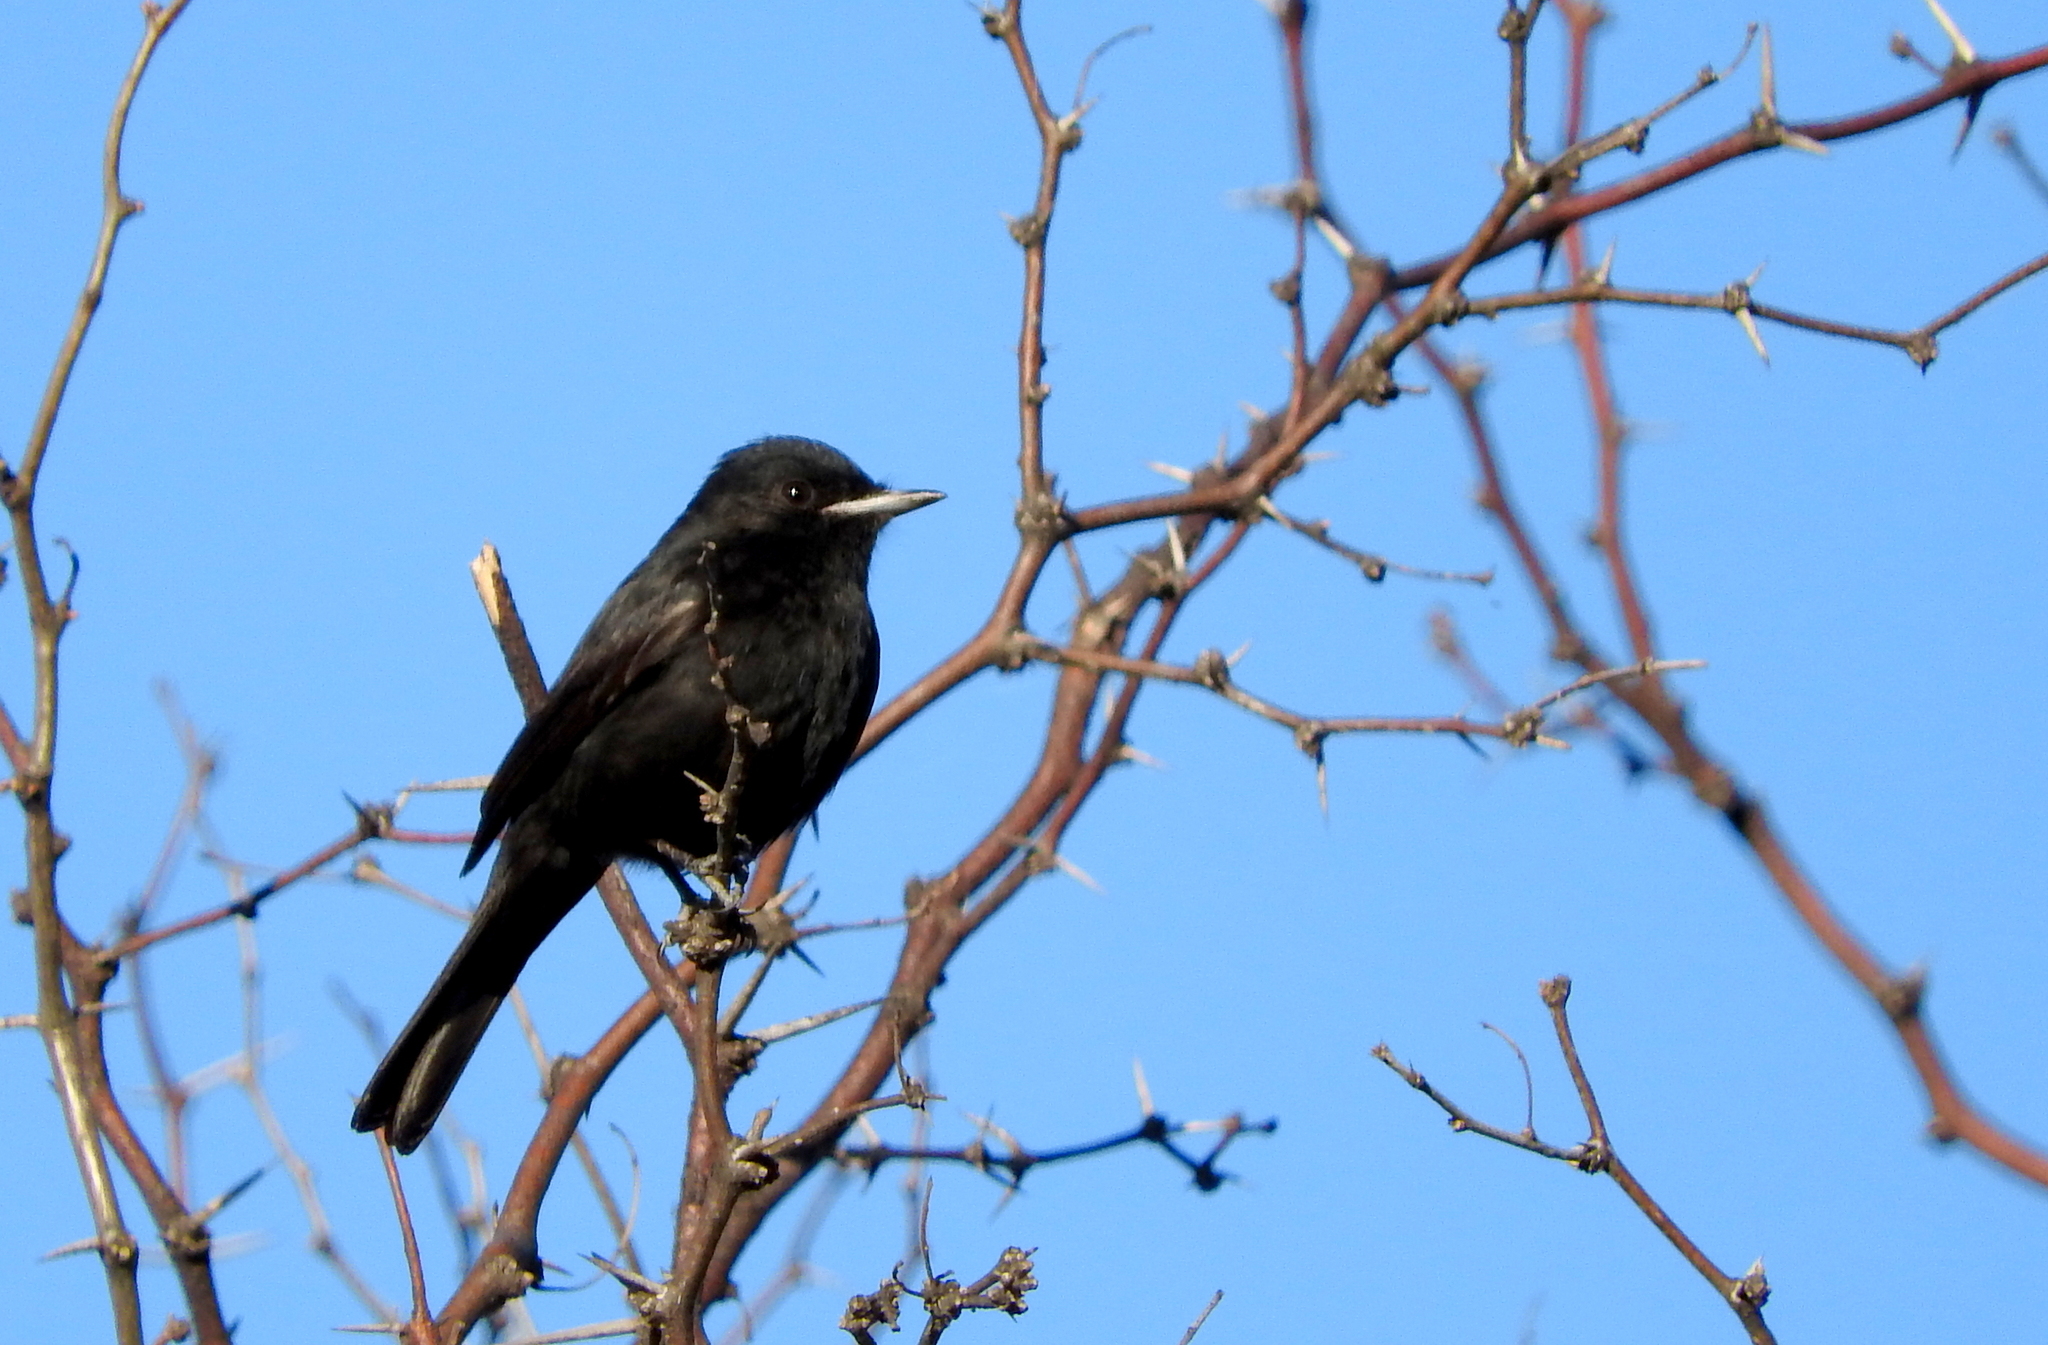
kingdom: Animalia
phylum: Chordata
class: Aves
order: Passeriformes
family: Tyrannidae
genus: Knipolegus
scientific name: Knipolegus hudsoni
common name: Hudson's black tyrant
